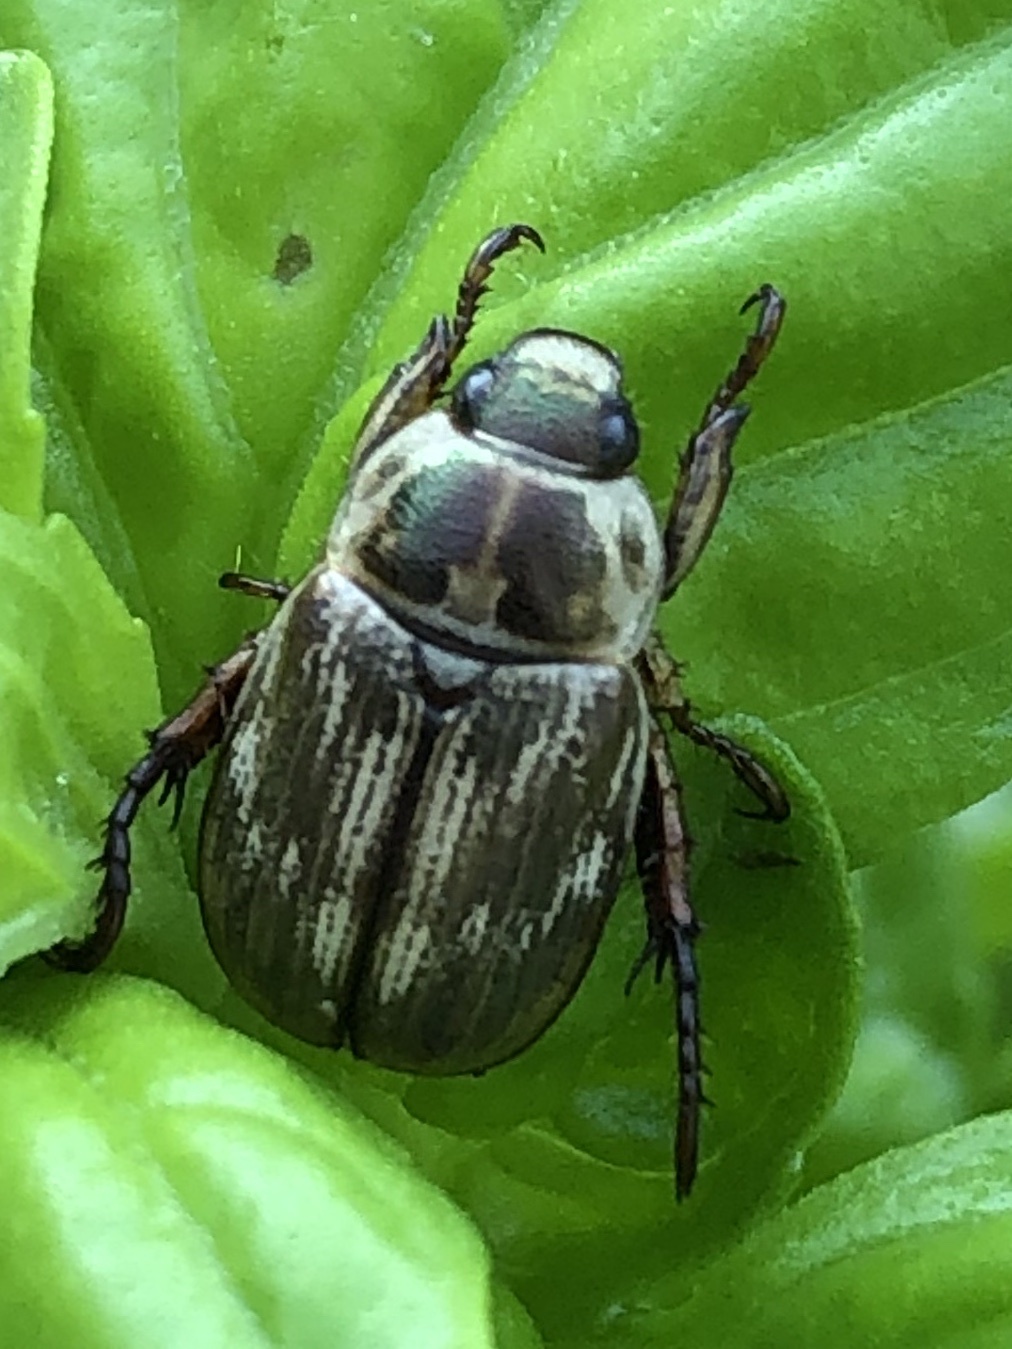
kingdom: Animalia
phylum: Arthropoda
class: Insecta
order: Coleoptera
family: Scarabaeidae
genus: Exomala
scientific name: Exomala orientalis
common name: Oriental beetle
